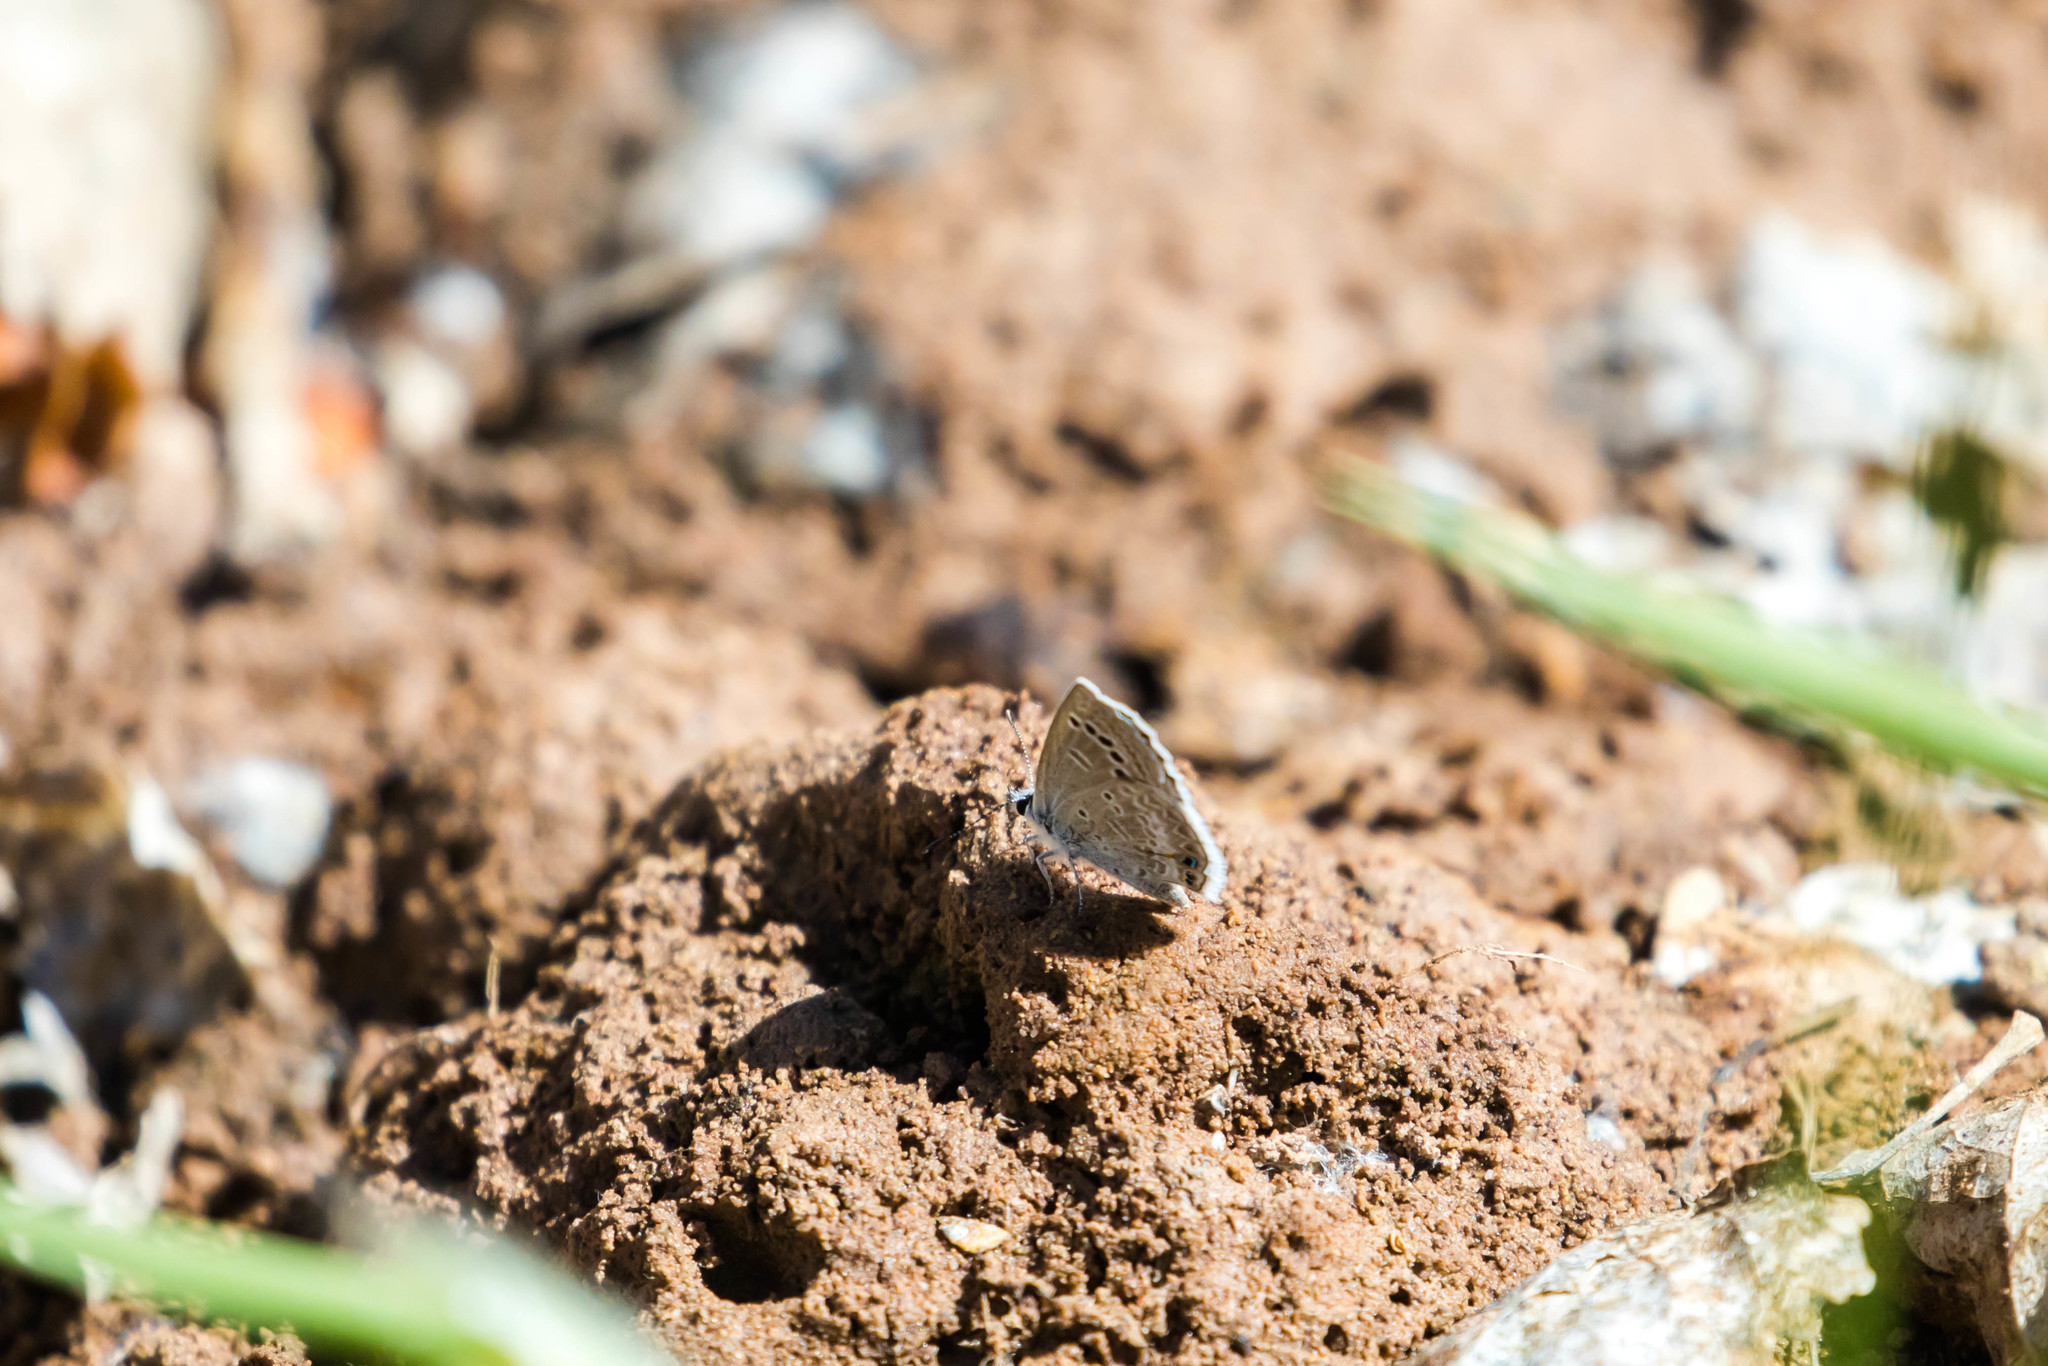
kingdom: Animalia
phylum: Arthropoda
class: Insecta
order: Lepidoptera
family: Lycaenidae
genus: Echinargus
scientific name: Echinargus isola
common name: Reakirt's blue
